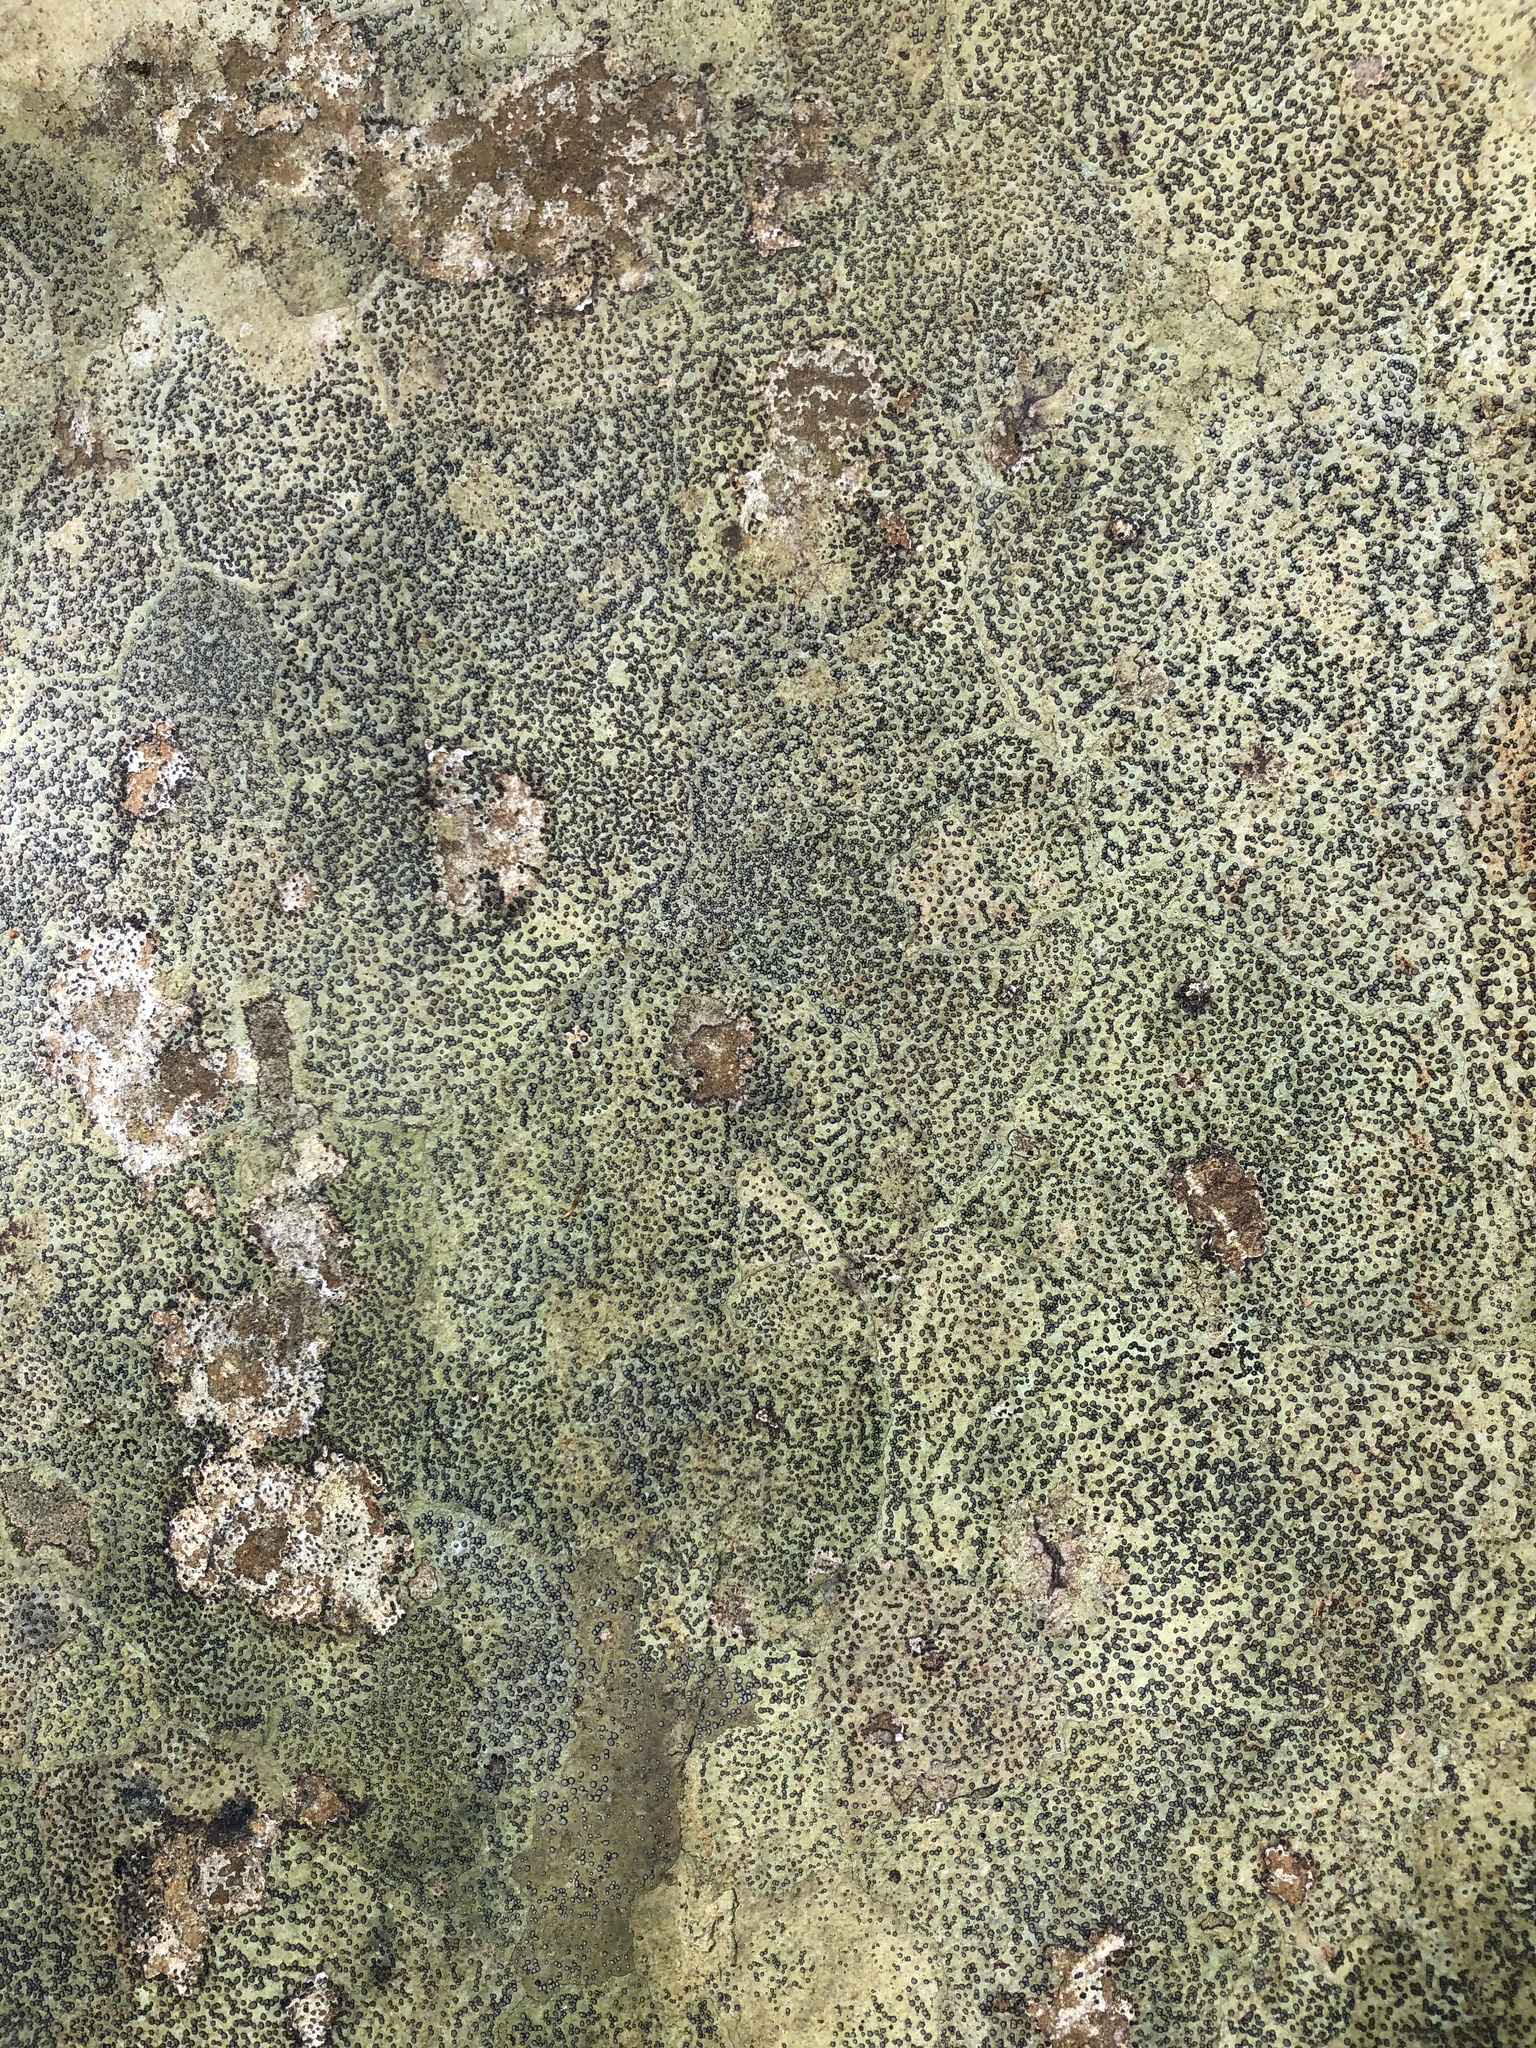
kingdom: Fungi
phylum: Ascomycota
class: Lecanoromycetes
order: Lecideales
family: Lecideaceae
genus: Porpidia
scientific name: Porpidia albocaerulescens
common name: Smokey-eyed boulder lichen
